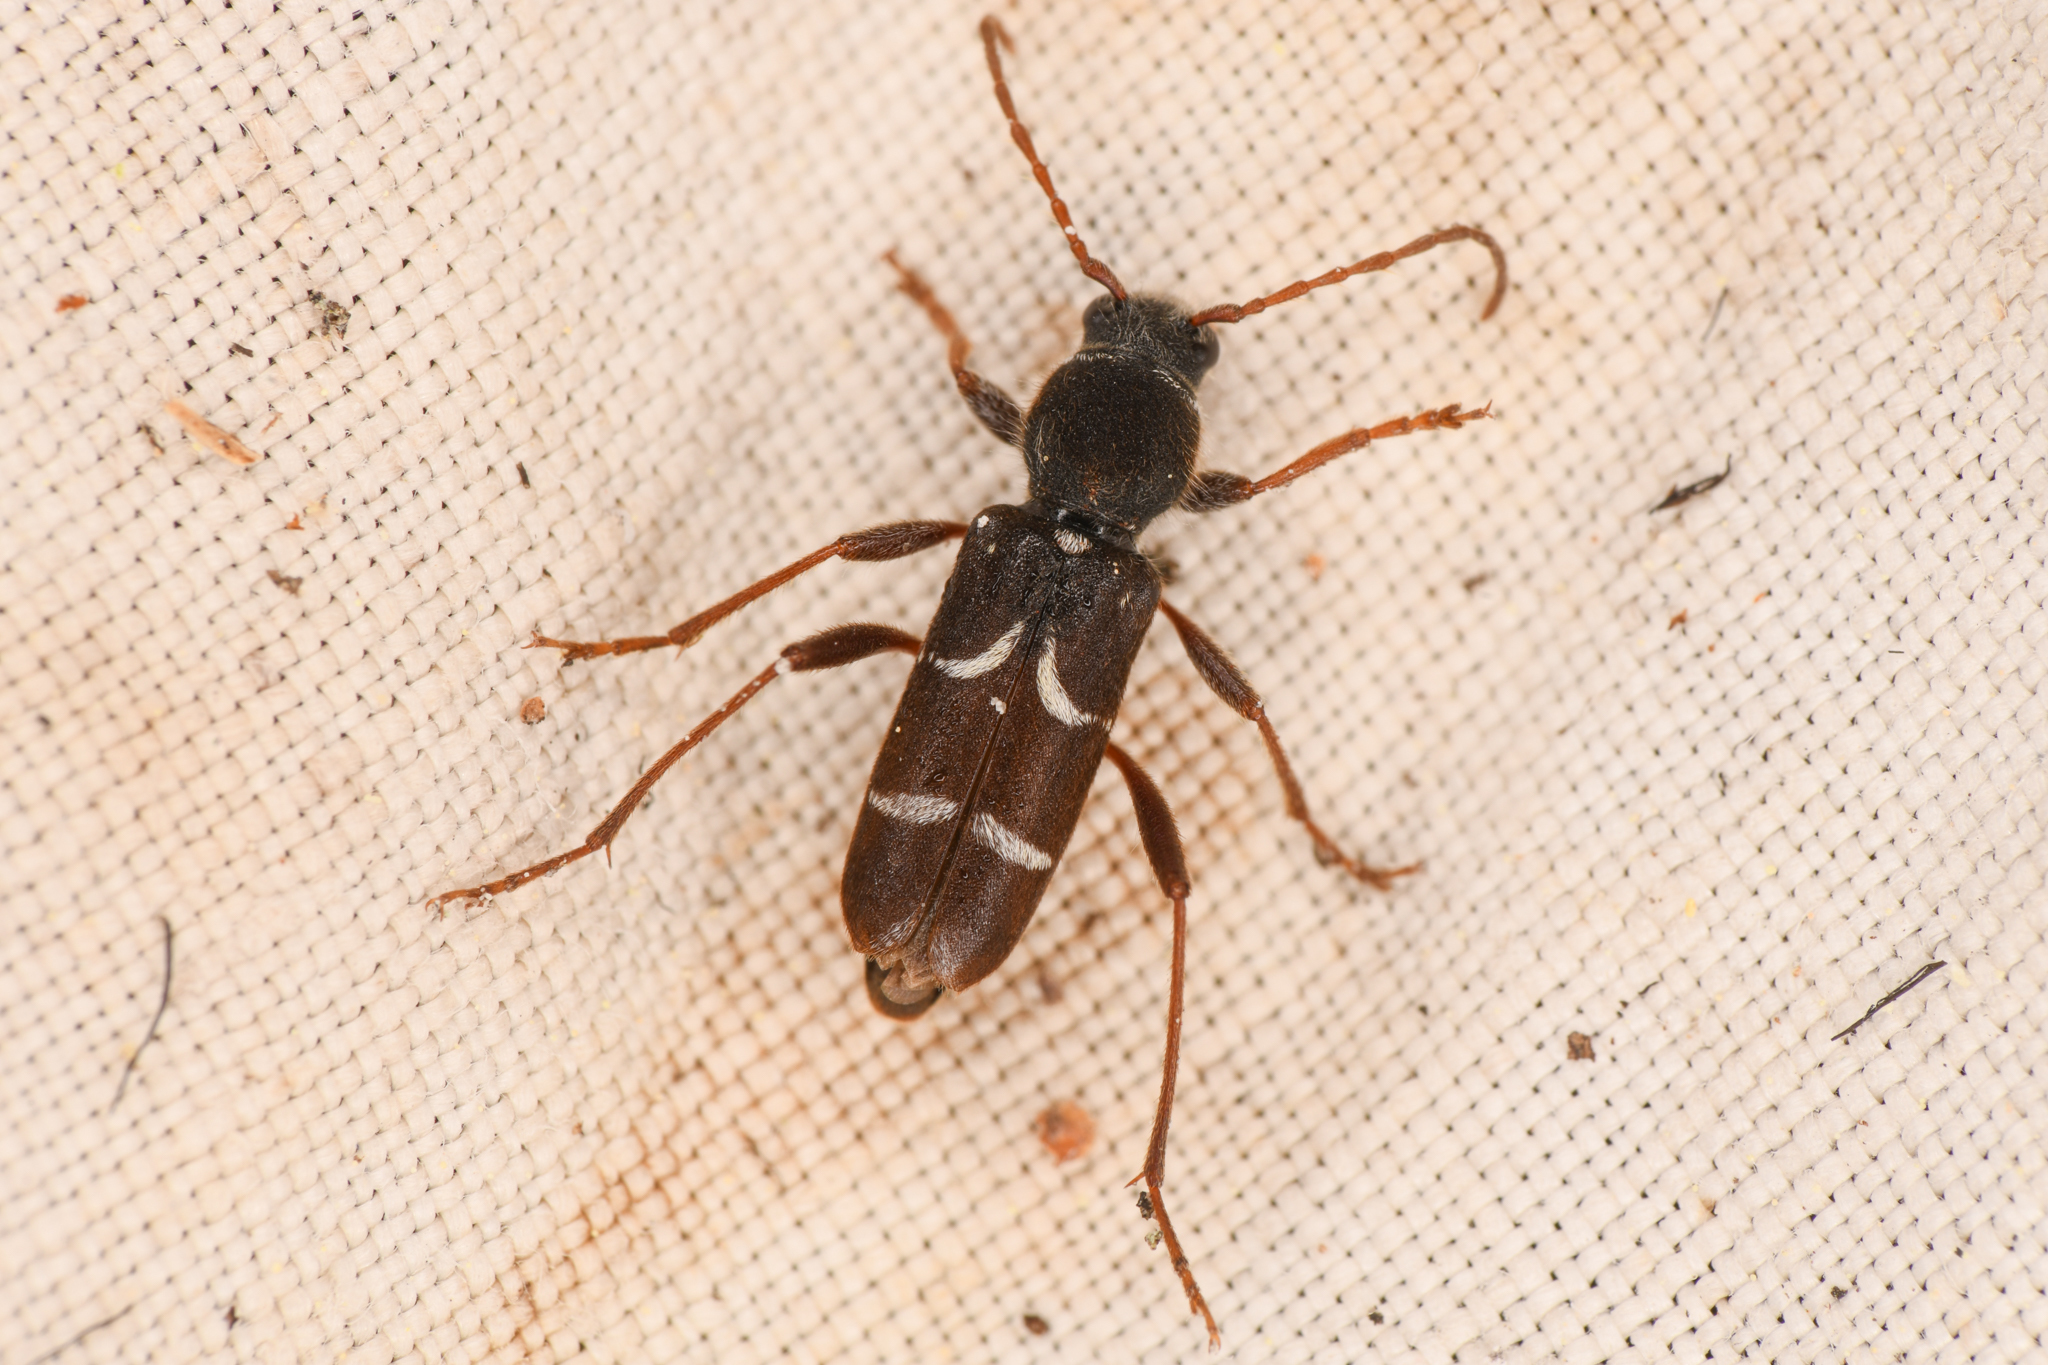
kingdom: Animalia
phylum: Arthropoda
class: Insecta
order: Coleoptera
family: Cerambycidae
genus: Neoclytus
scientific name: Neoclytus muricatulus
